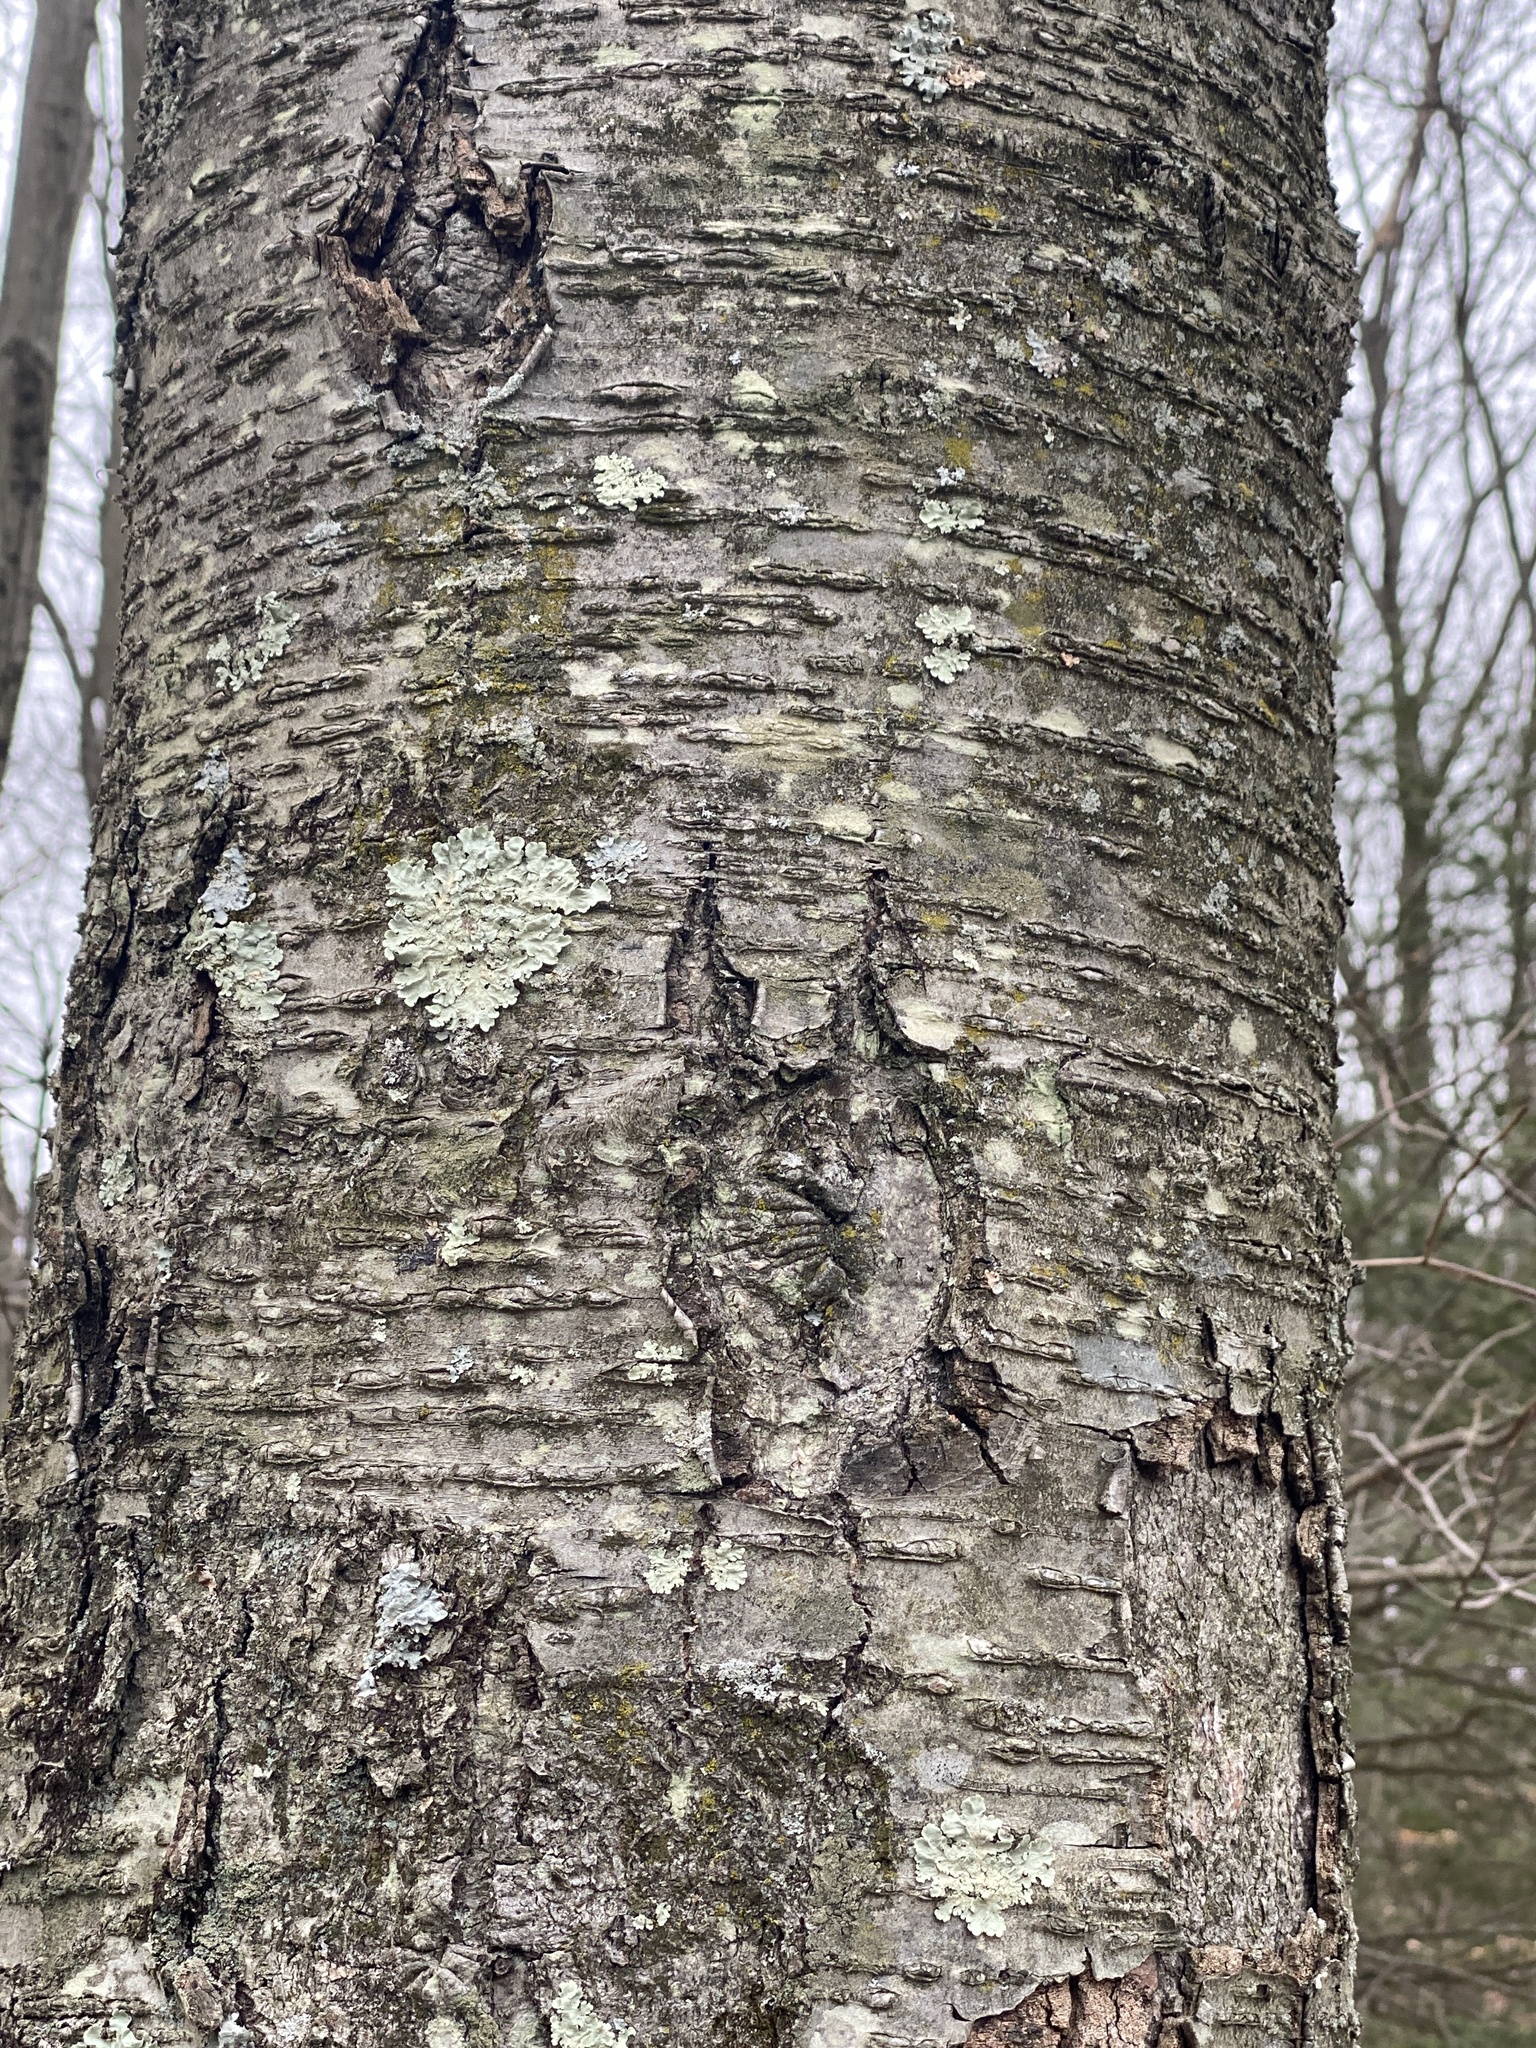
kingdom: Plantae
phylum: Tracheophyta
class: Magnoliopsida
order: Fagales
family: Betulaceae
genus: Betula
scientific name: Betula lenta
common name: Black birch
